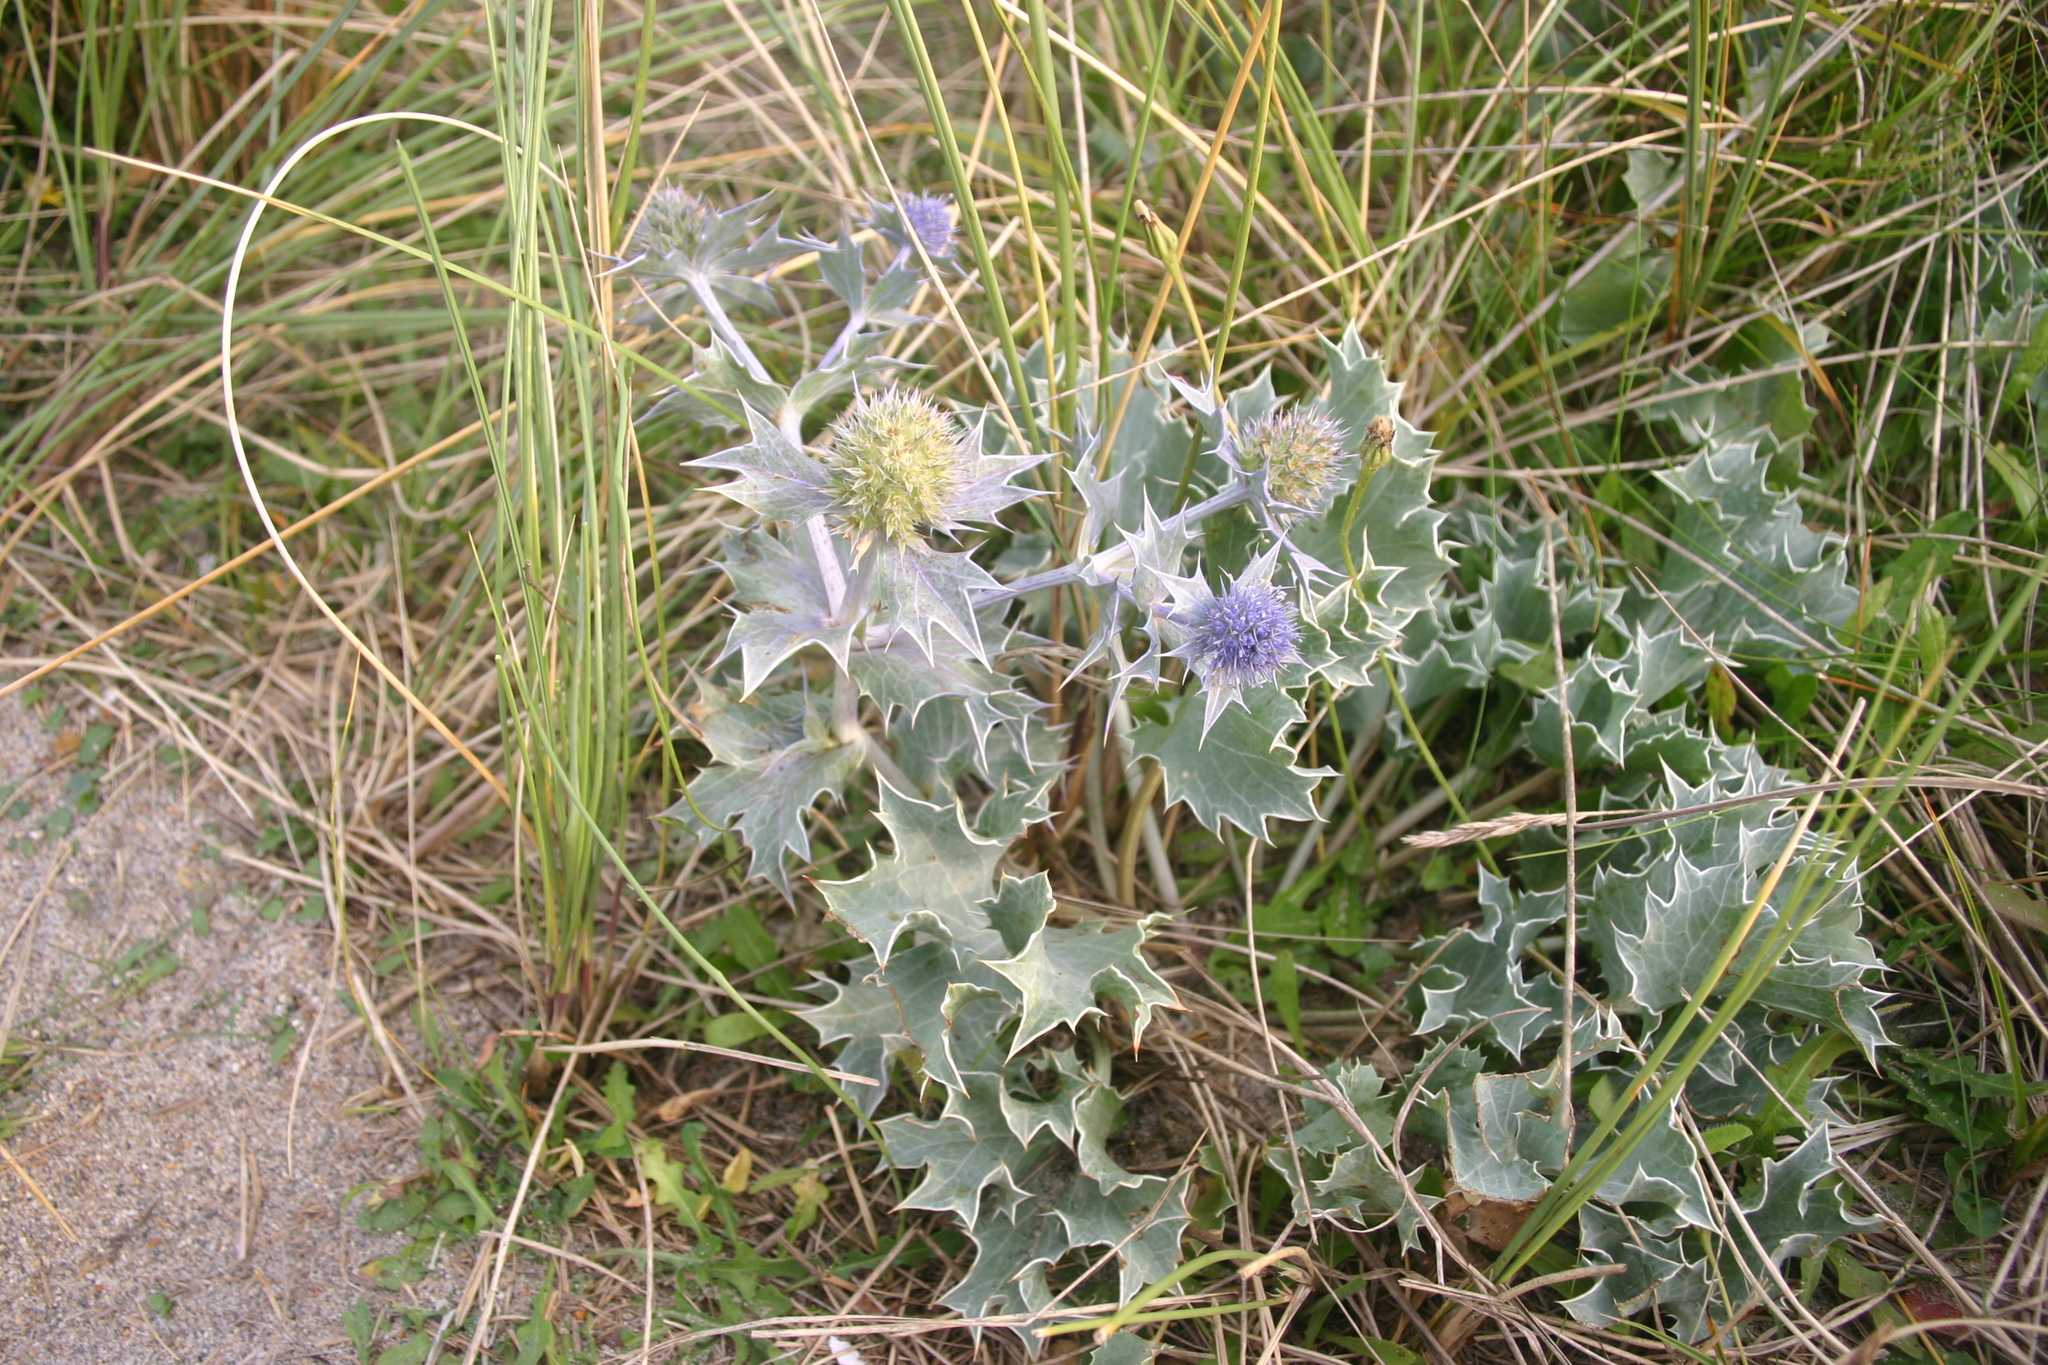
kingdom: Plantae
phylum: Tracheophyta
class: Magnoliopsida
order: Apiales
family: Apiaceae
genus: Eryngium
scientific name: Eryngium maritimum
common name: Sea-holly
